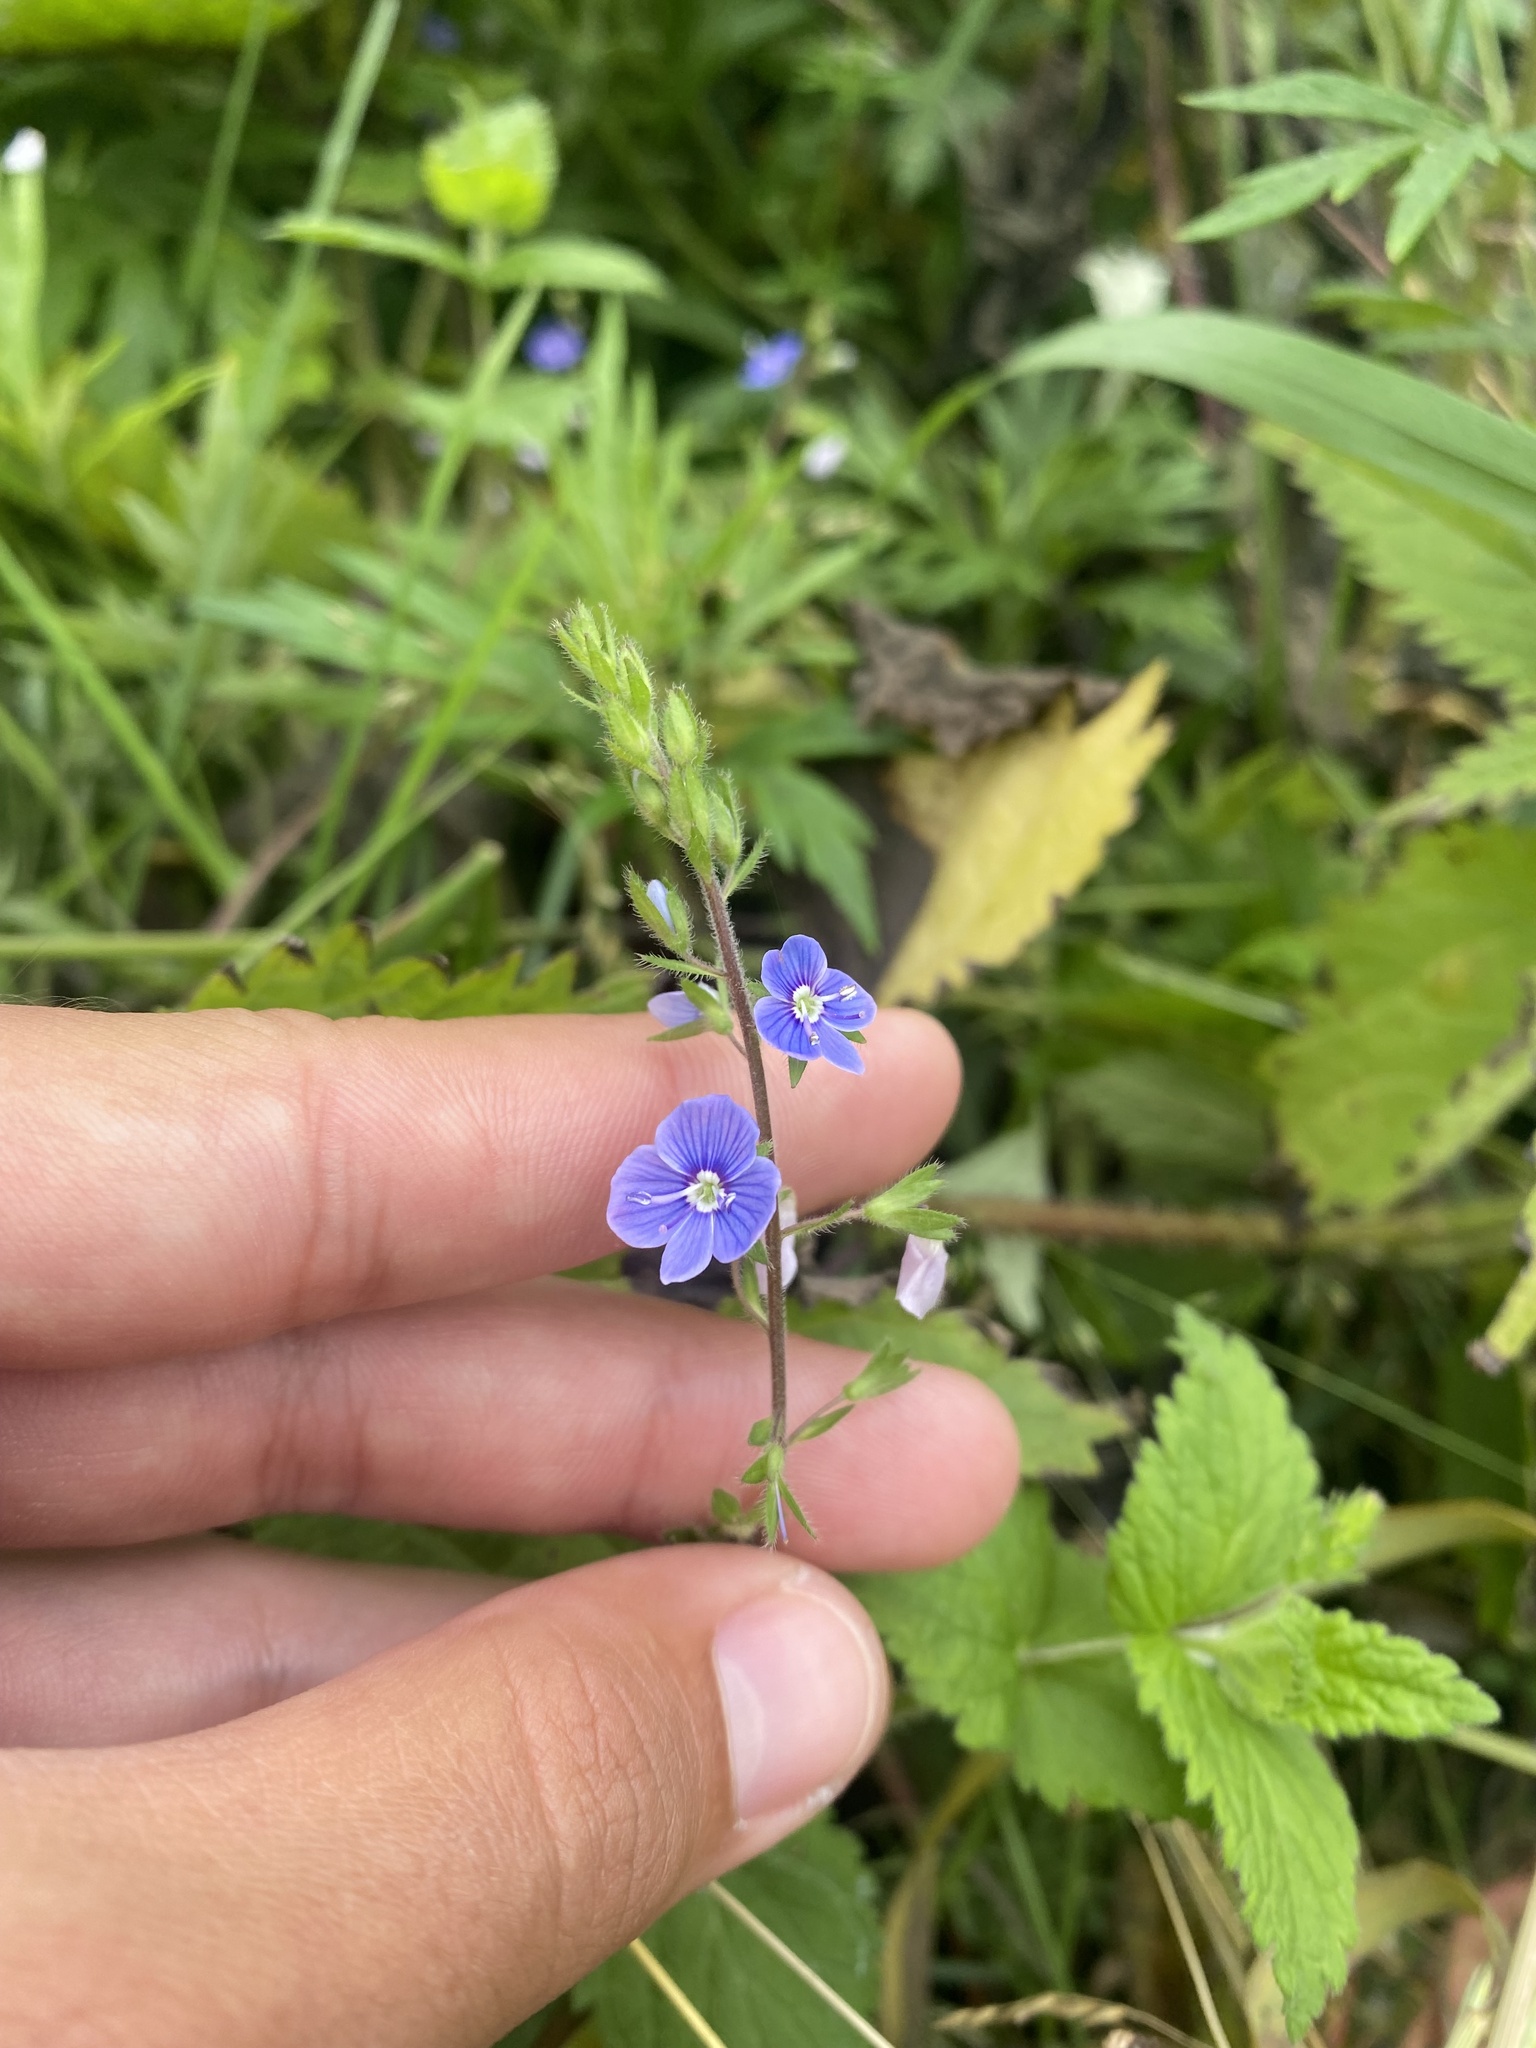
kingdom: Plantae
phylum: Tracheophyta
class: Magnoliopsida
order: Lamiales
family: Plantaginaceae
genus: Veronica
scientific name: Veronica chamaedrys
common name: Germander speedwell
